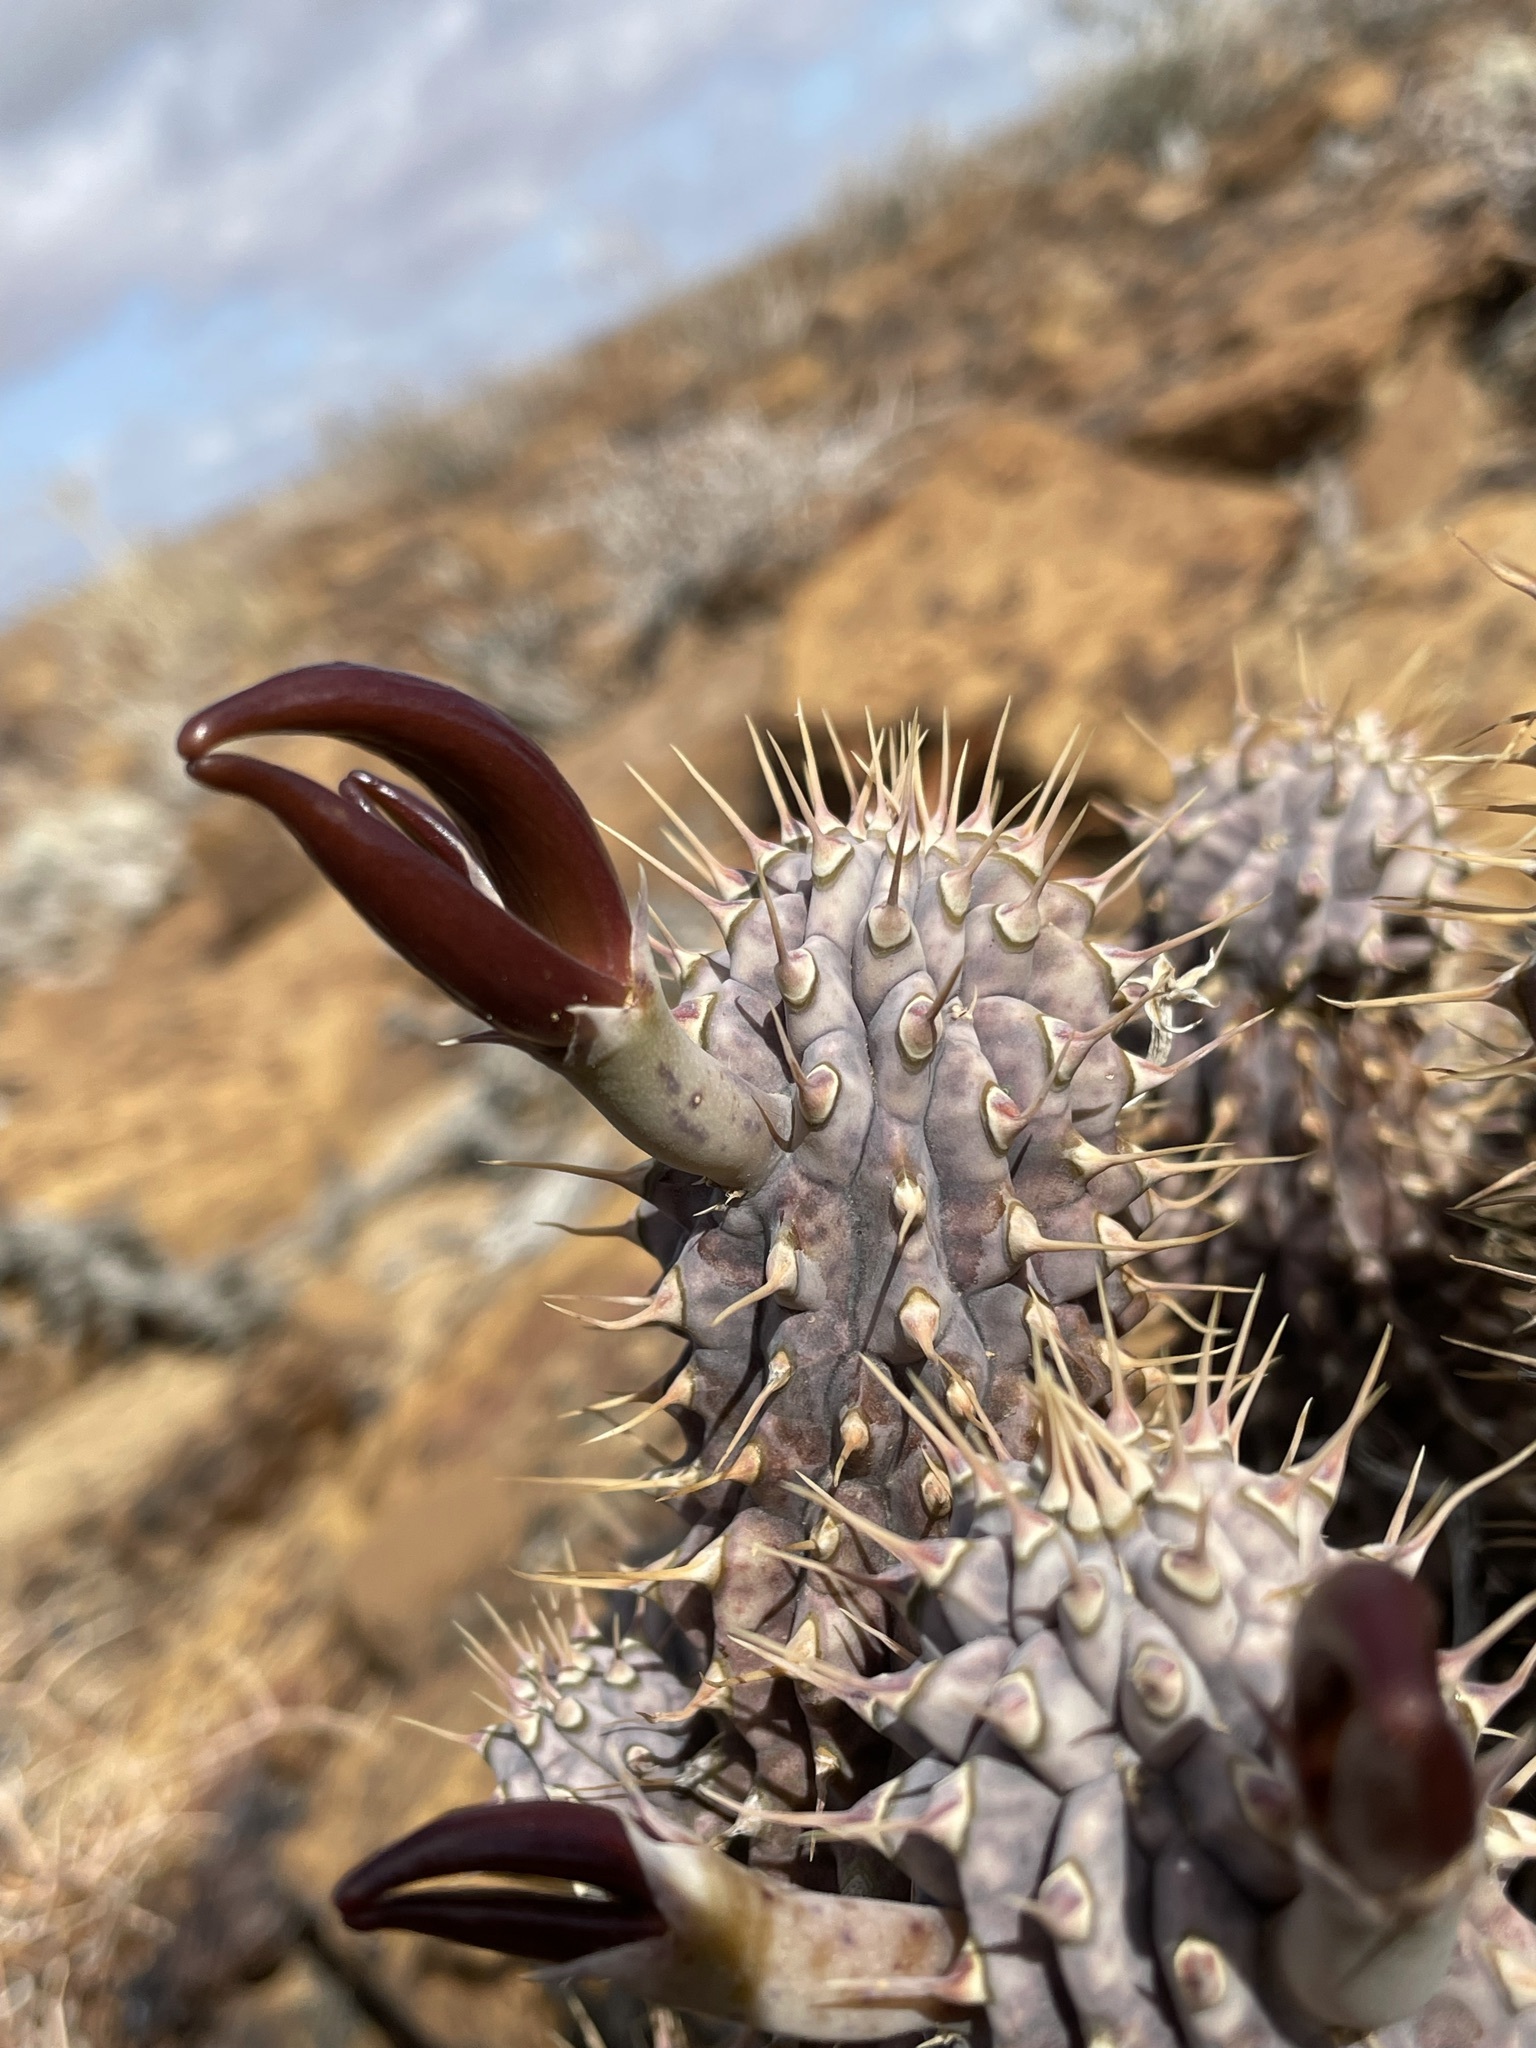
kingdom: Plantae
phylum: Tracheophyta
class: Magnoliopsida
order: Gentianales
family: Apocynaceae
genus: Hoodia
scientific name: Hoodia gordonii
